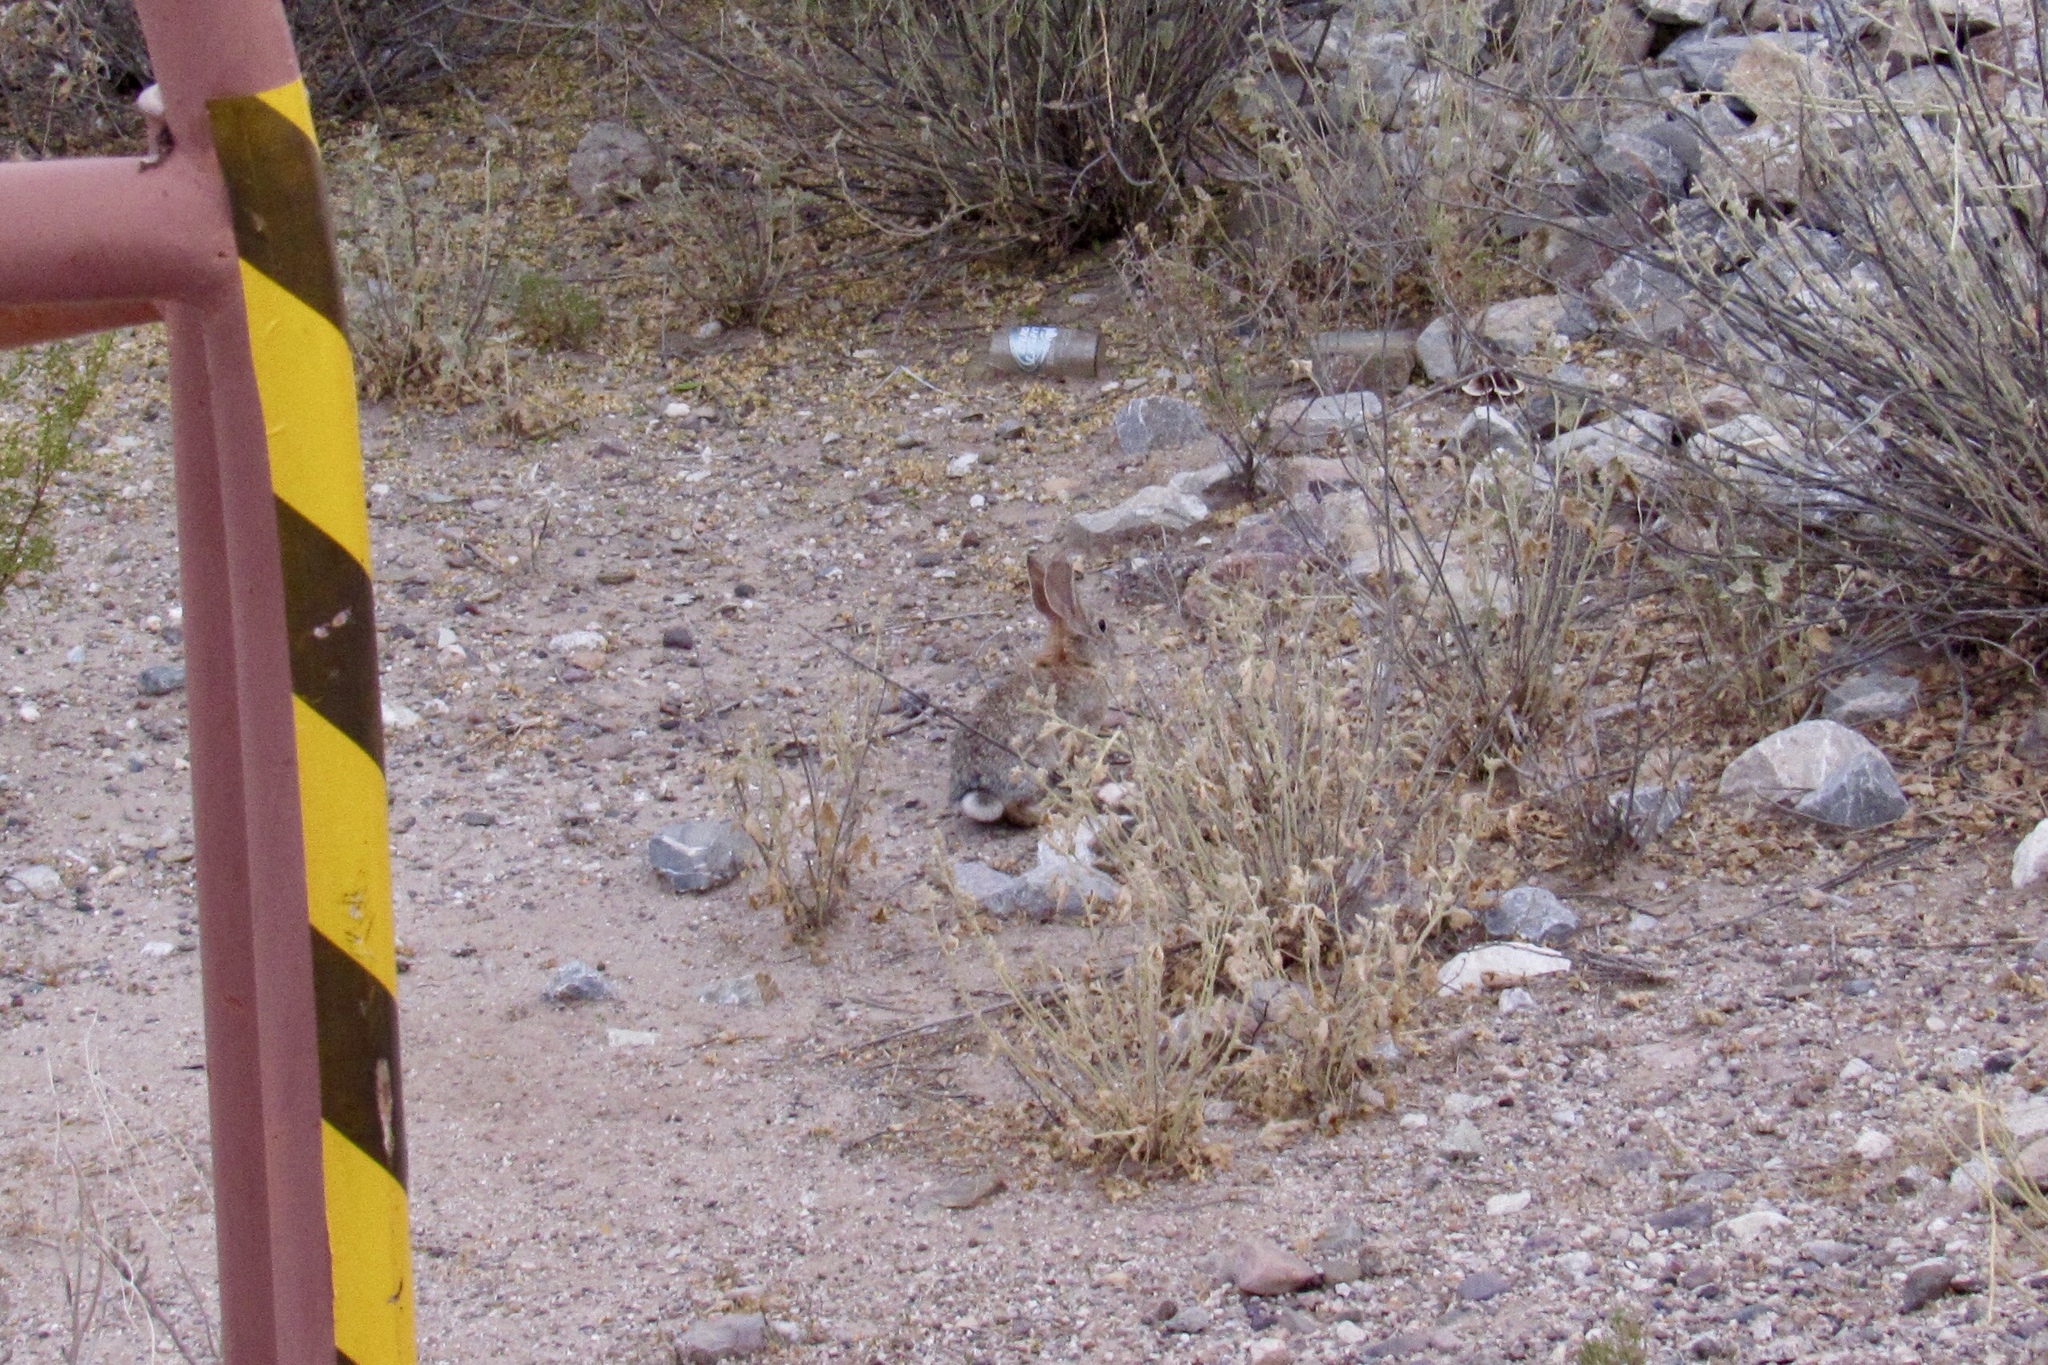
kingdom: Animalia
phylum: Chordata
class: Mammalia
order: Lagomorpha
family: Leporidae
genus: Sylvilagus
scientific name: Sylvilagus audubonii
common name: Desert cottontail
